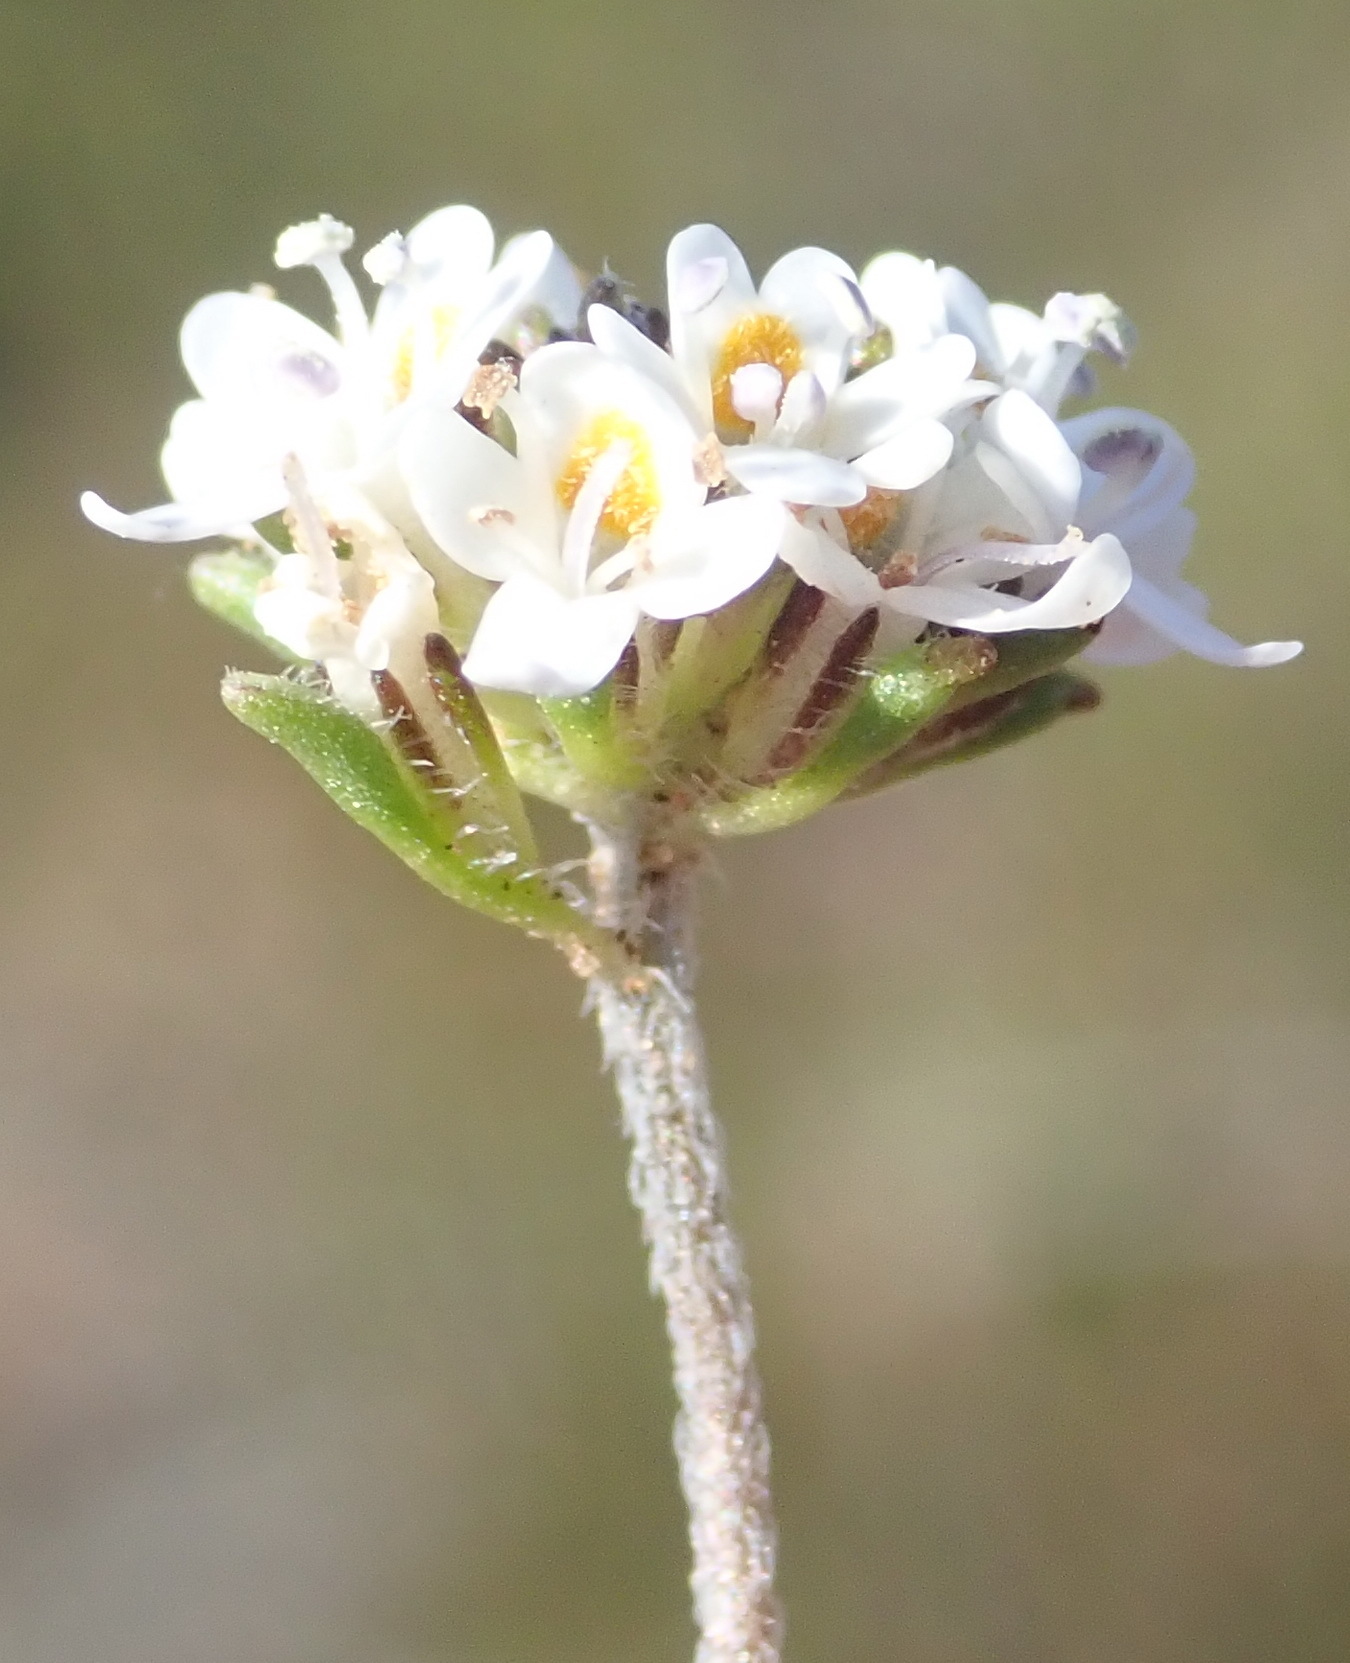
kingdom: Plantae
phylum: Tracheophyta
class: Magnoliopsida
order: Lamiales
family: Scrophulariaceae
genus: Phyllopodium
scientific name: Phyllopodium cuneifolium
